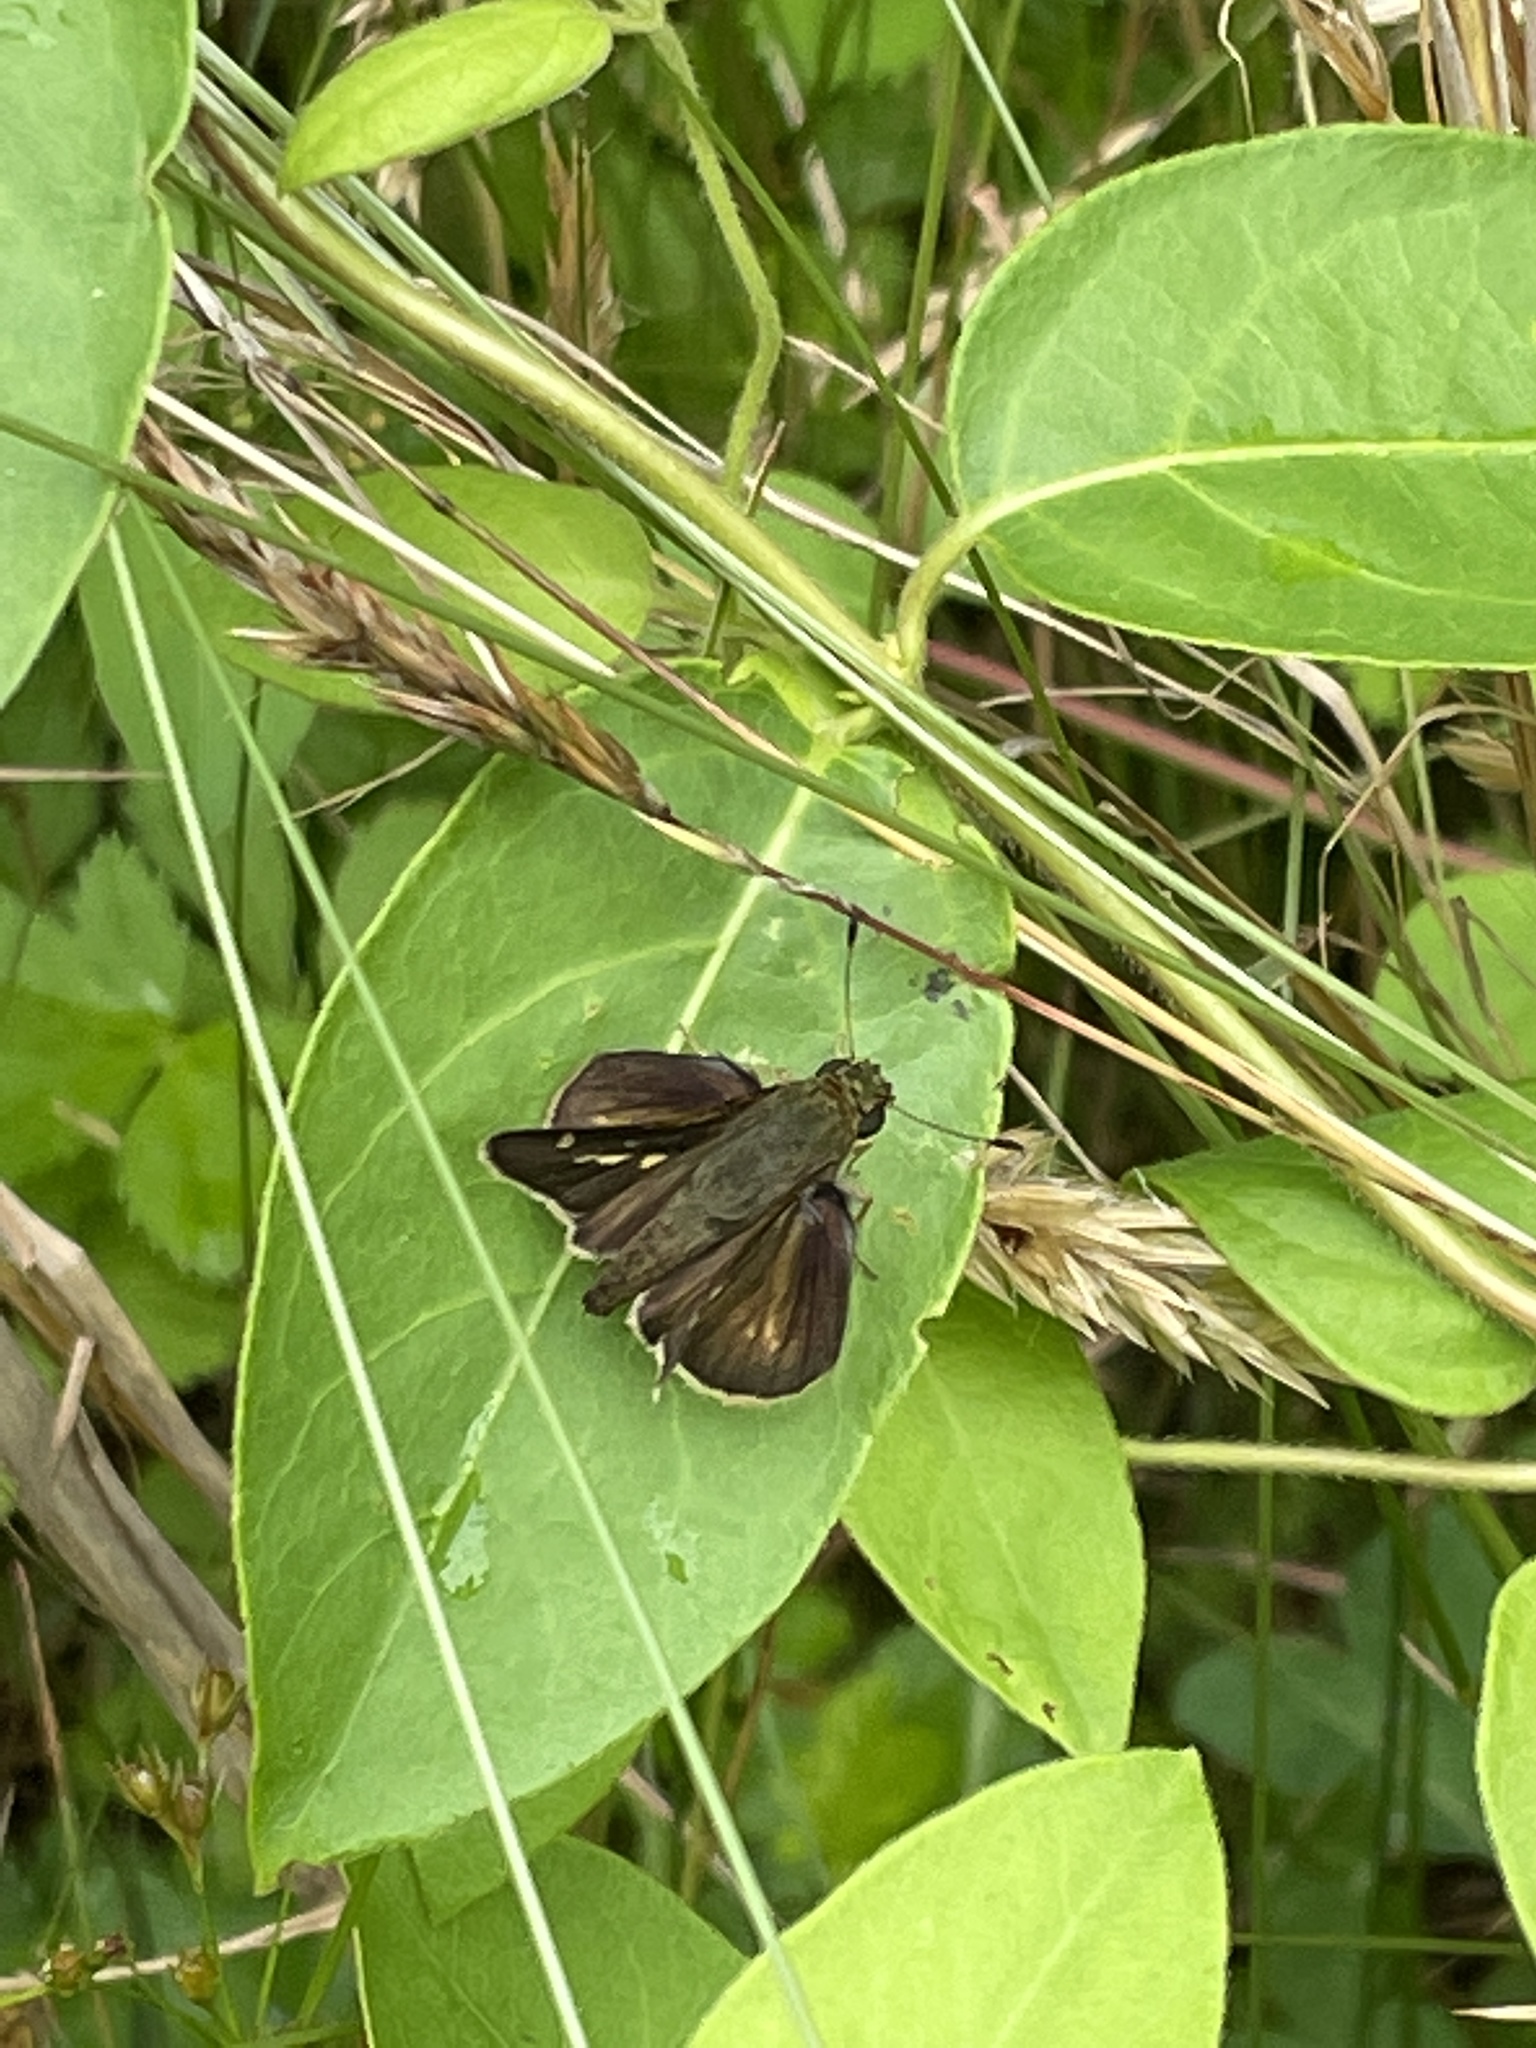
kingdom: Animalia
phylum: Arthropoda
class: Insecta
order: Lepidoptera
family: Hesperiidae
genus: Vernia
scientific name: Vernia verna
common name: Little glassywing
